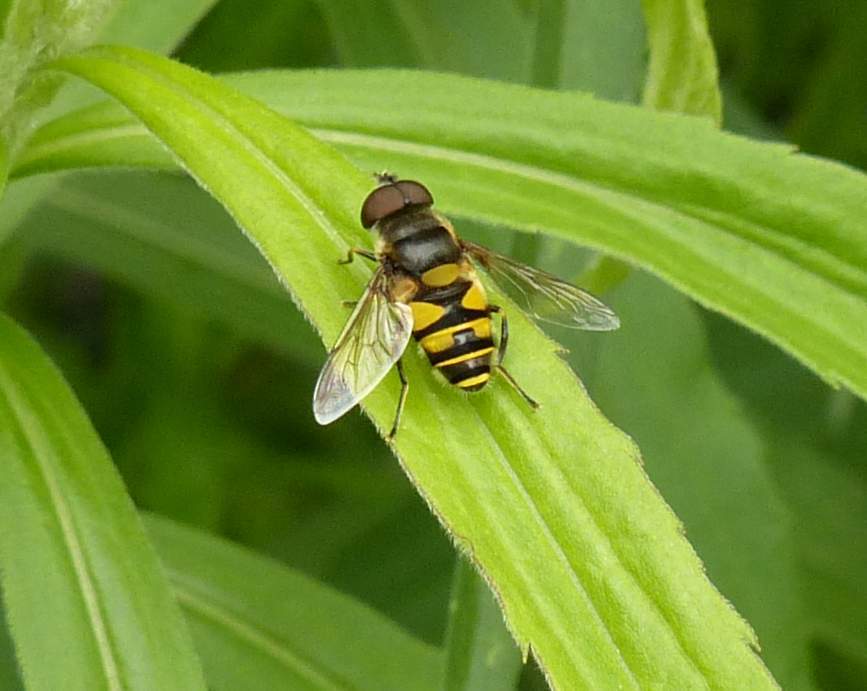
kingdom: Animalia
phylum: Arthropoda
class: Insecta
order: Diptera
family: Syrphidae
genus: Eristalis
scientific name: Eristalis transversa
